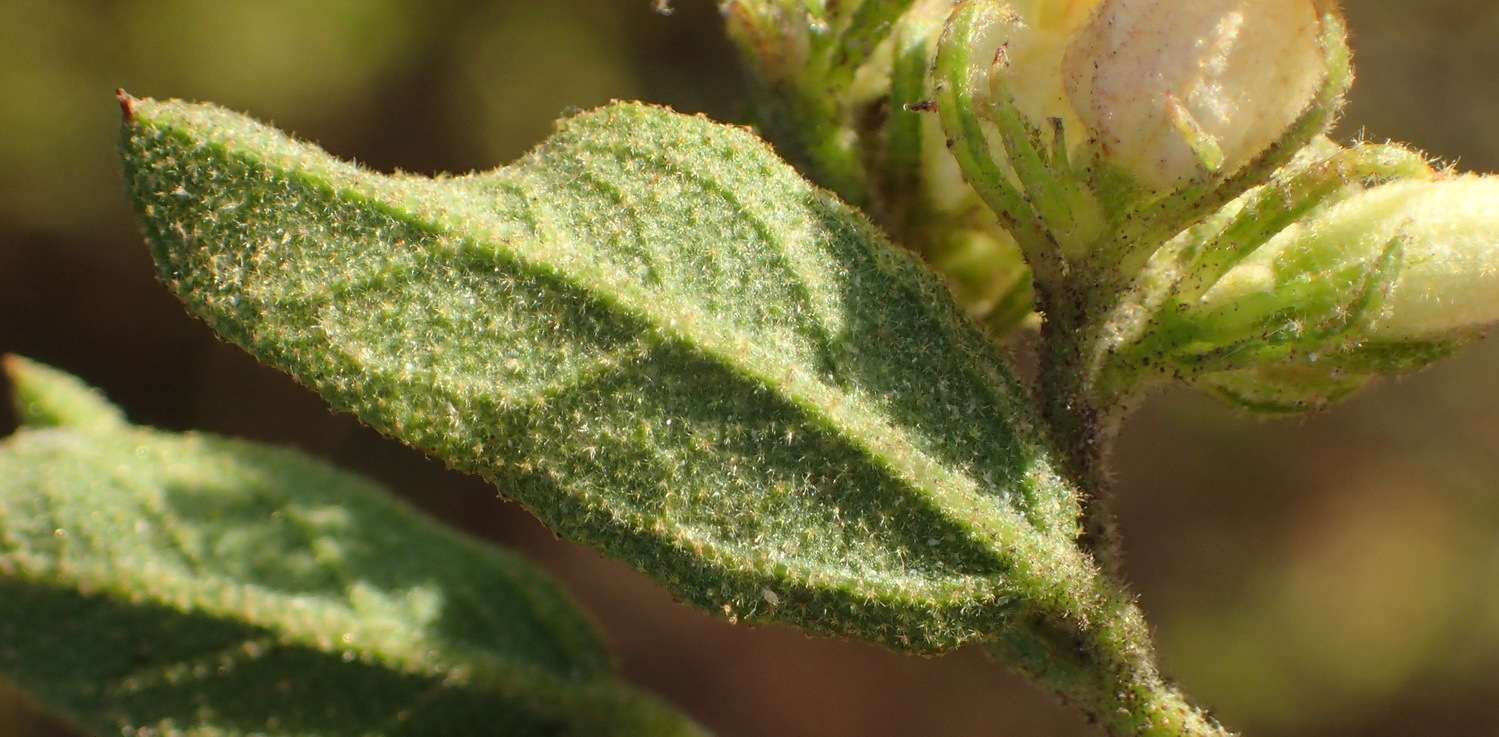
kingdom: Plantae
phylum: Tracheophyta
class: Magnoliopsida
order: Malvales
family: Malvaceae
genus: Hermannia
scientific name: Hermannia salviifolia
